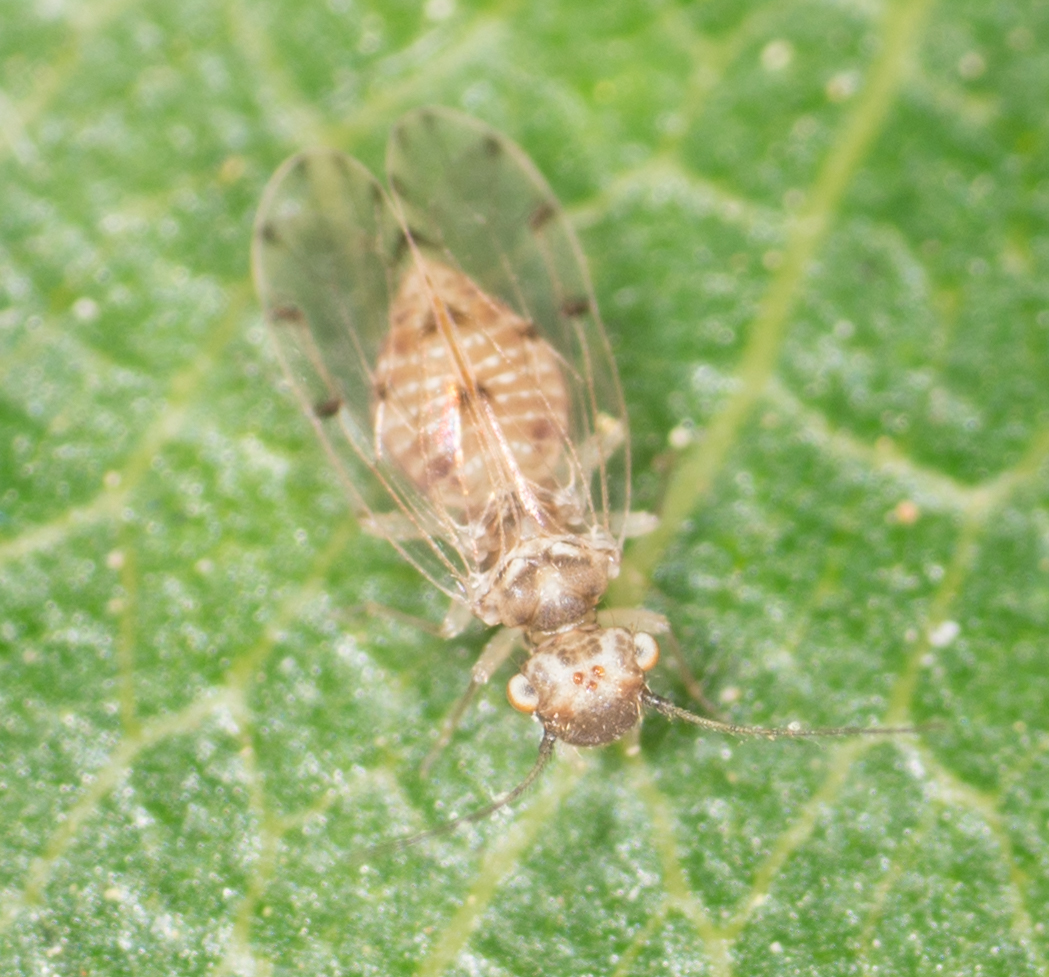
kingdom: Animalia
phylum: Arthropoda
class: Insecta
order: Psocodea
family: Ectopsocidae
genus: Ectopsocus
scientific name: Ectopsocus californicus
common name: Bark lice
